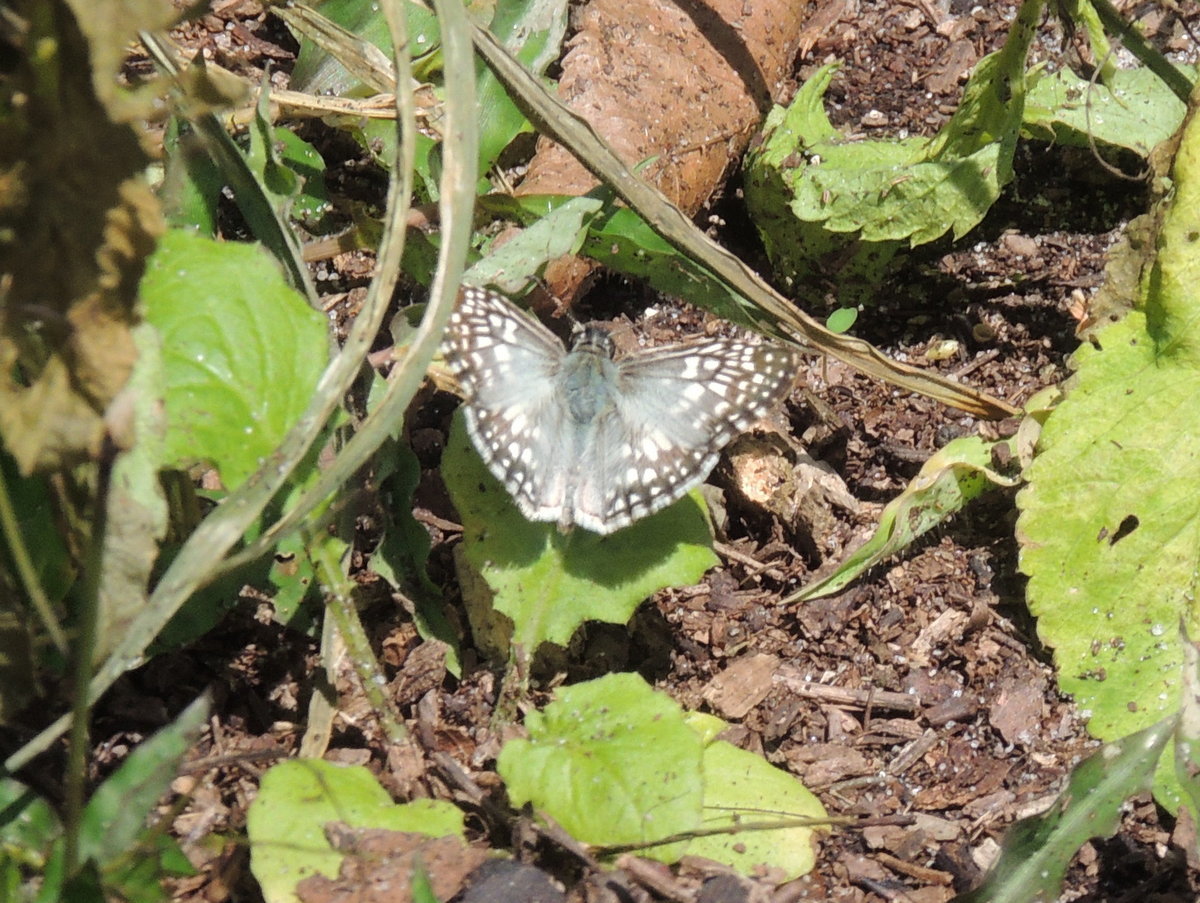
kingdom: Animalia
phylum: Arthropoda
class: Insecta
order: Lepidoptera
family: Hesperiidae
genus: Pyrgus
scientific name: Pyrgus oileus
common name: Tropical checkered-skipper
